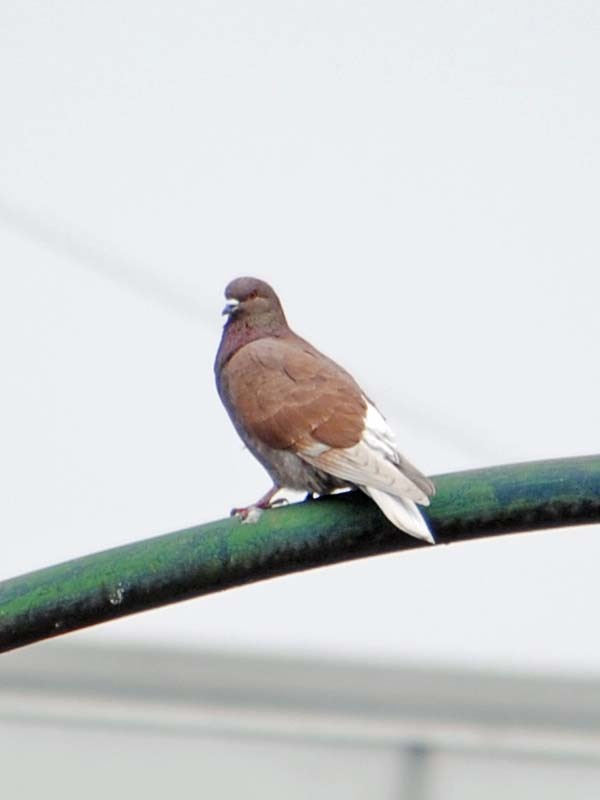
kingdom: Animalia
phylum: Chordata
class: Aves
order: Columbiformes
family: Columbidae
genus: Columba
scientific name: Columba livia
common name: Rock pigeon
